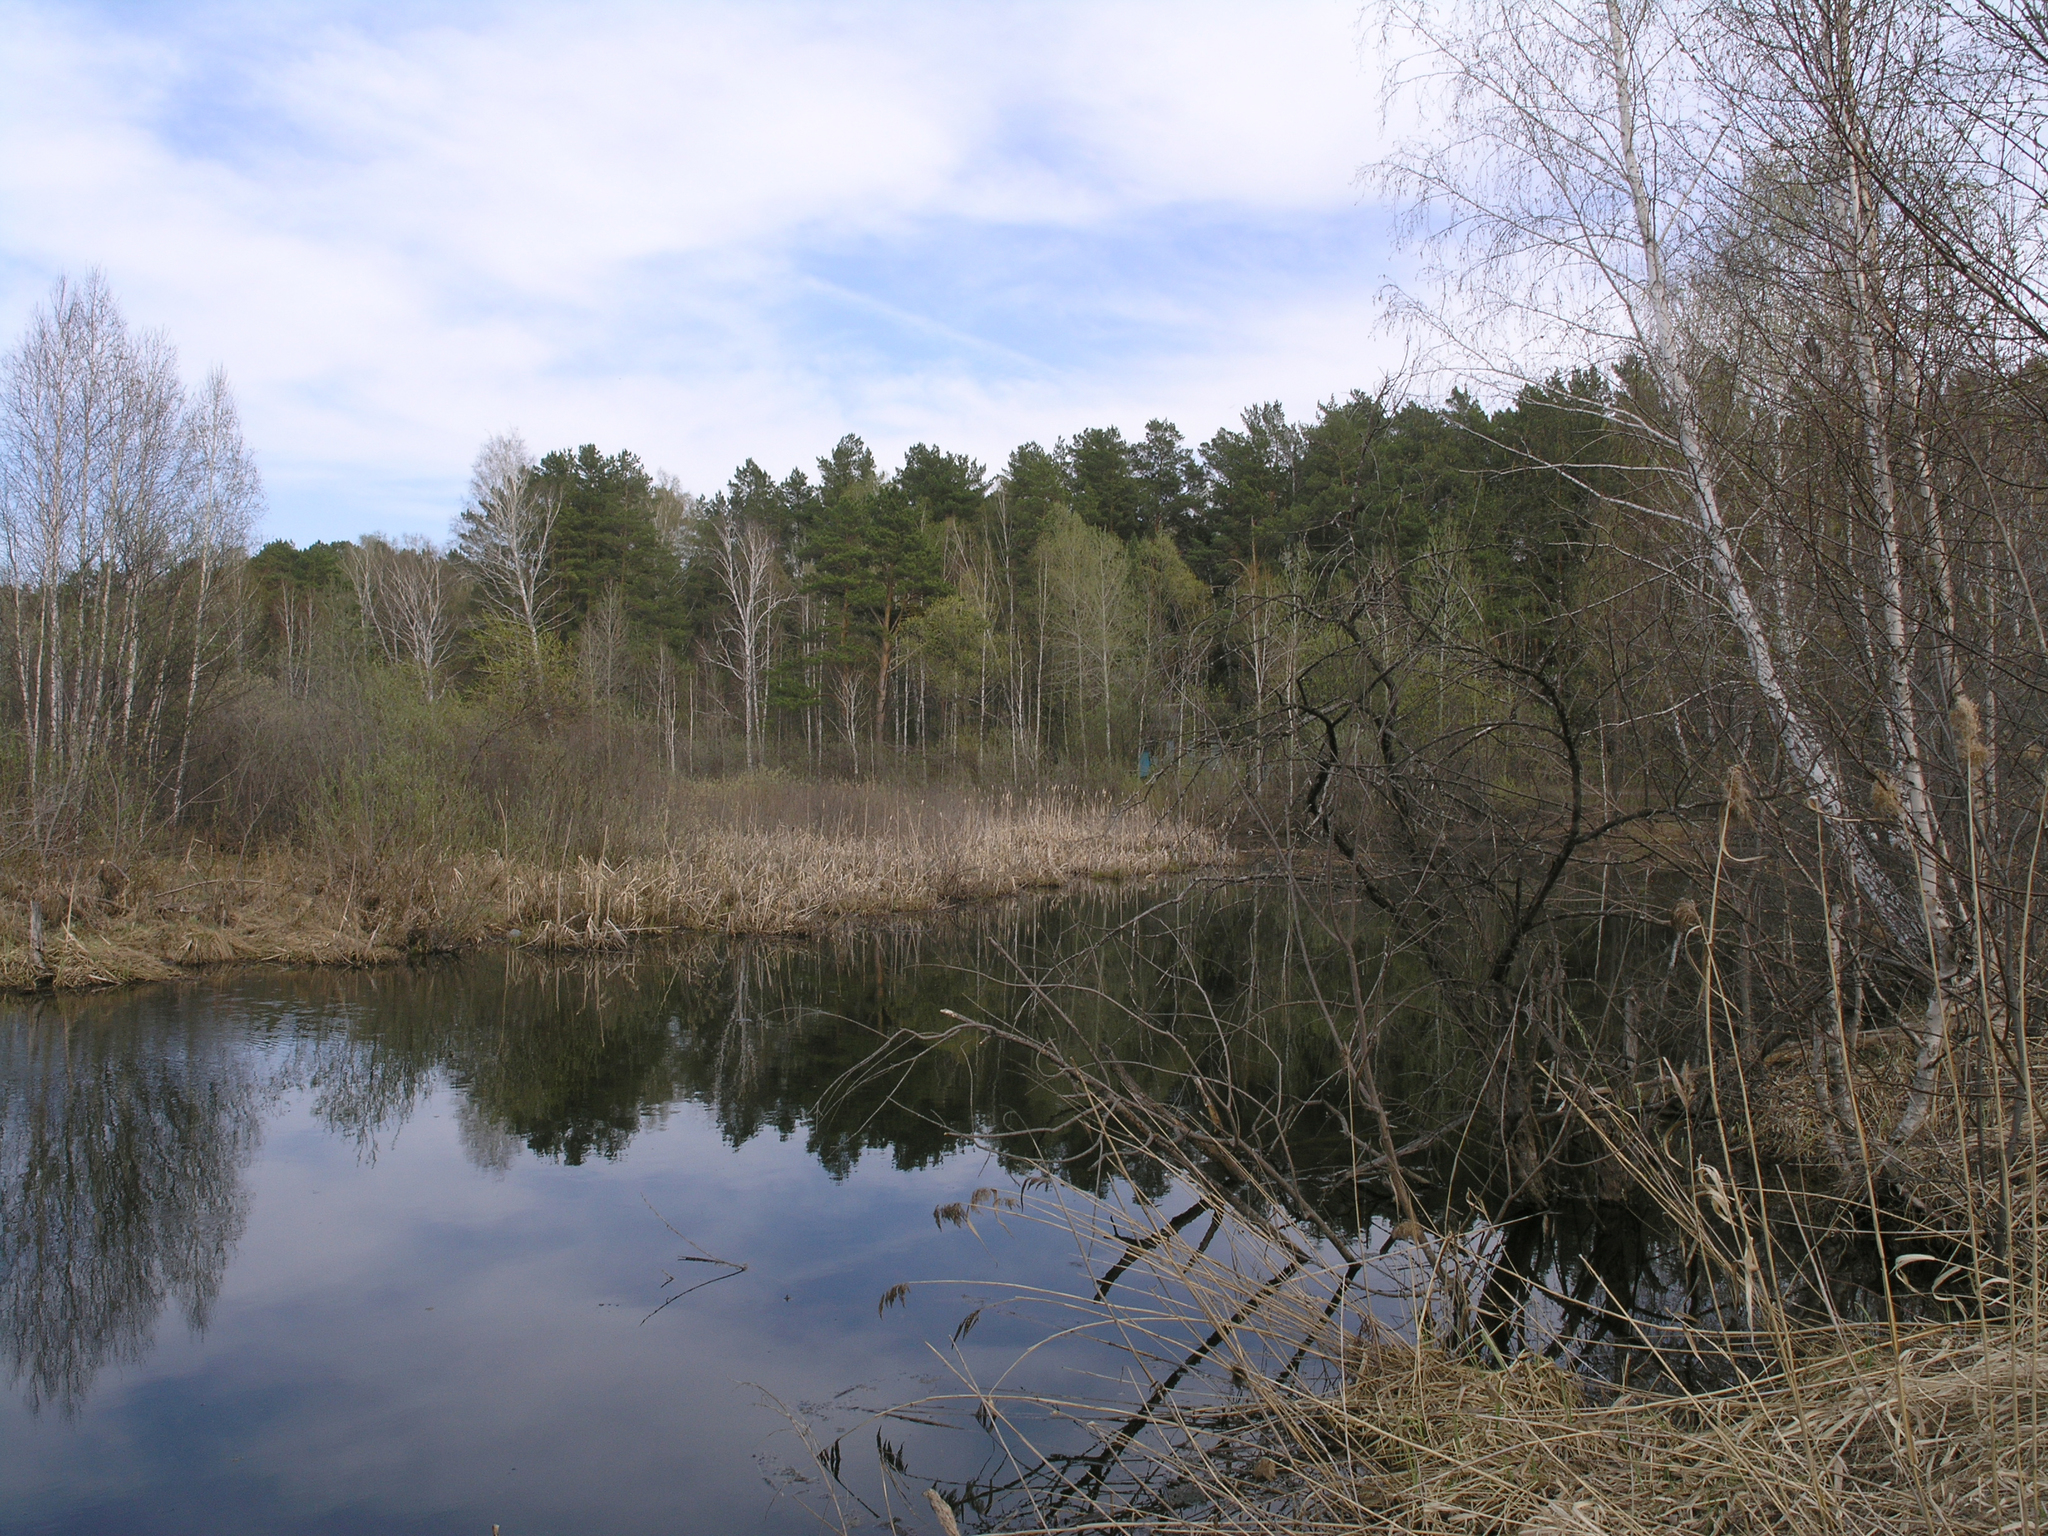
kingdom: Plantae
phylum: Tracheophyta
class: Pinopsida
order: Pinales
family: Pinaceae
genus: Pinus
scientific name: Pinus sylvestris
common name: Scots pine
